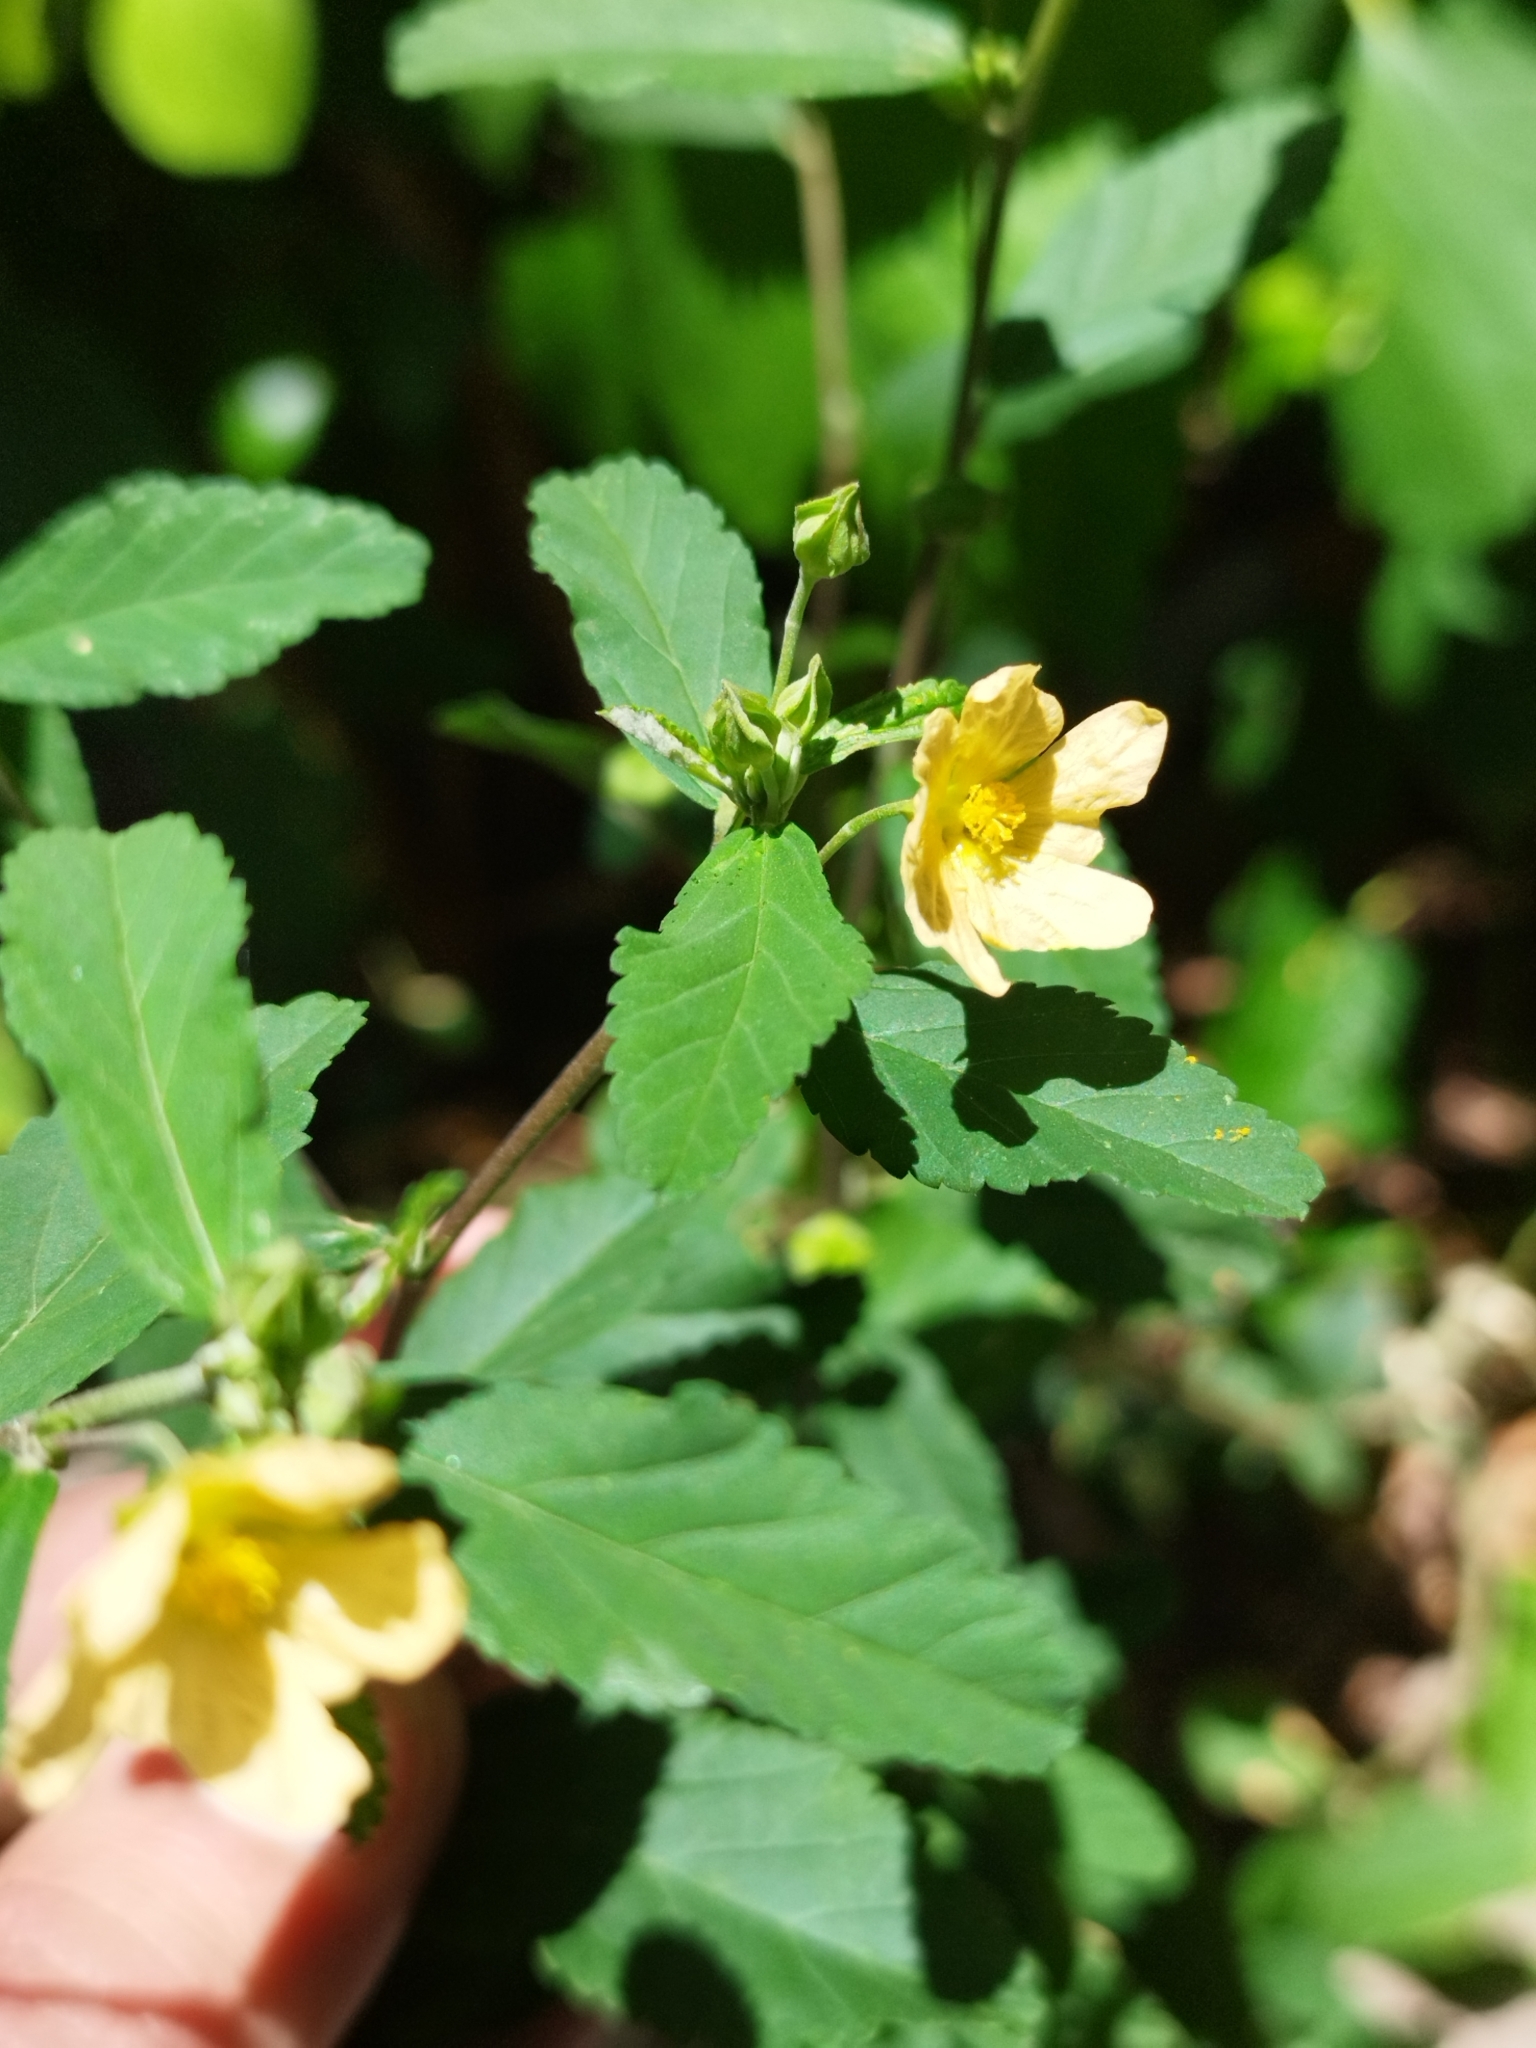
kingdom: Plantae
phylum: Tracheophyta
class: Magnoliopsida
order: Malvales
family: Malvaceae
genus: Sida
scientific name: Sida rhombifolia
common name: Queensland-hemp
